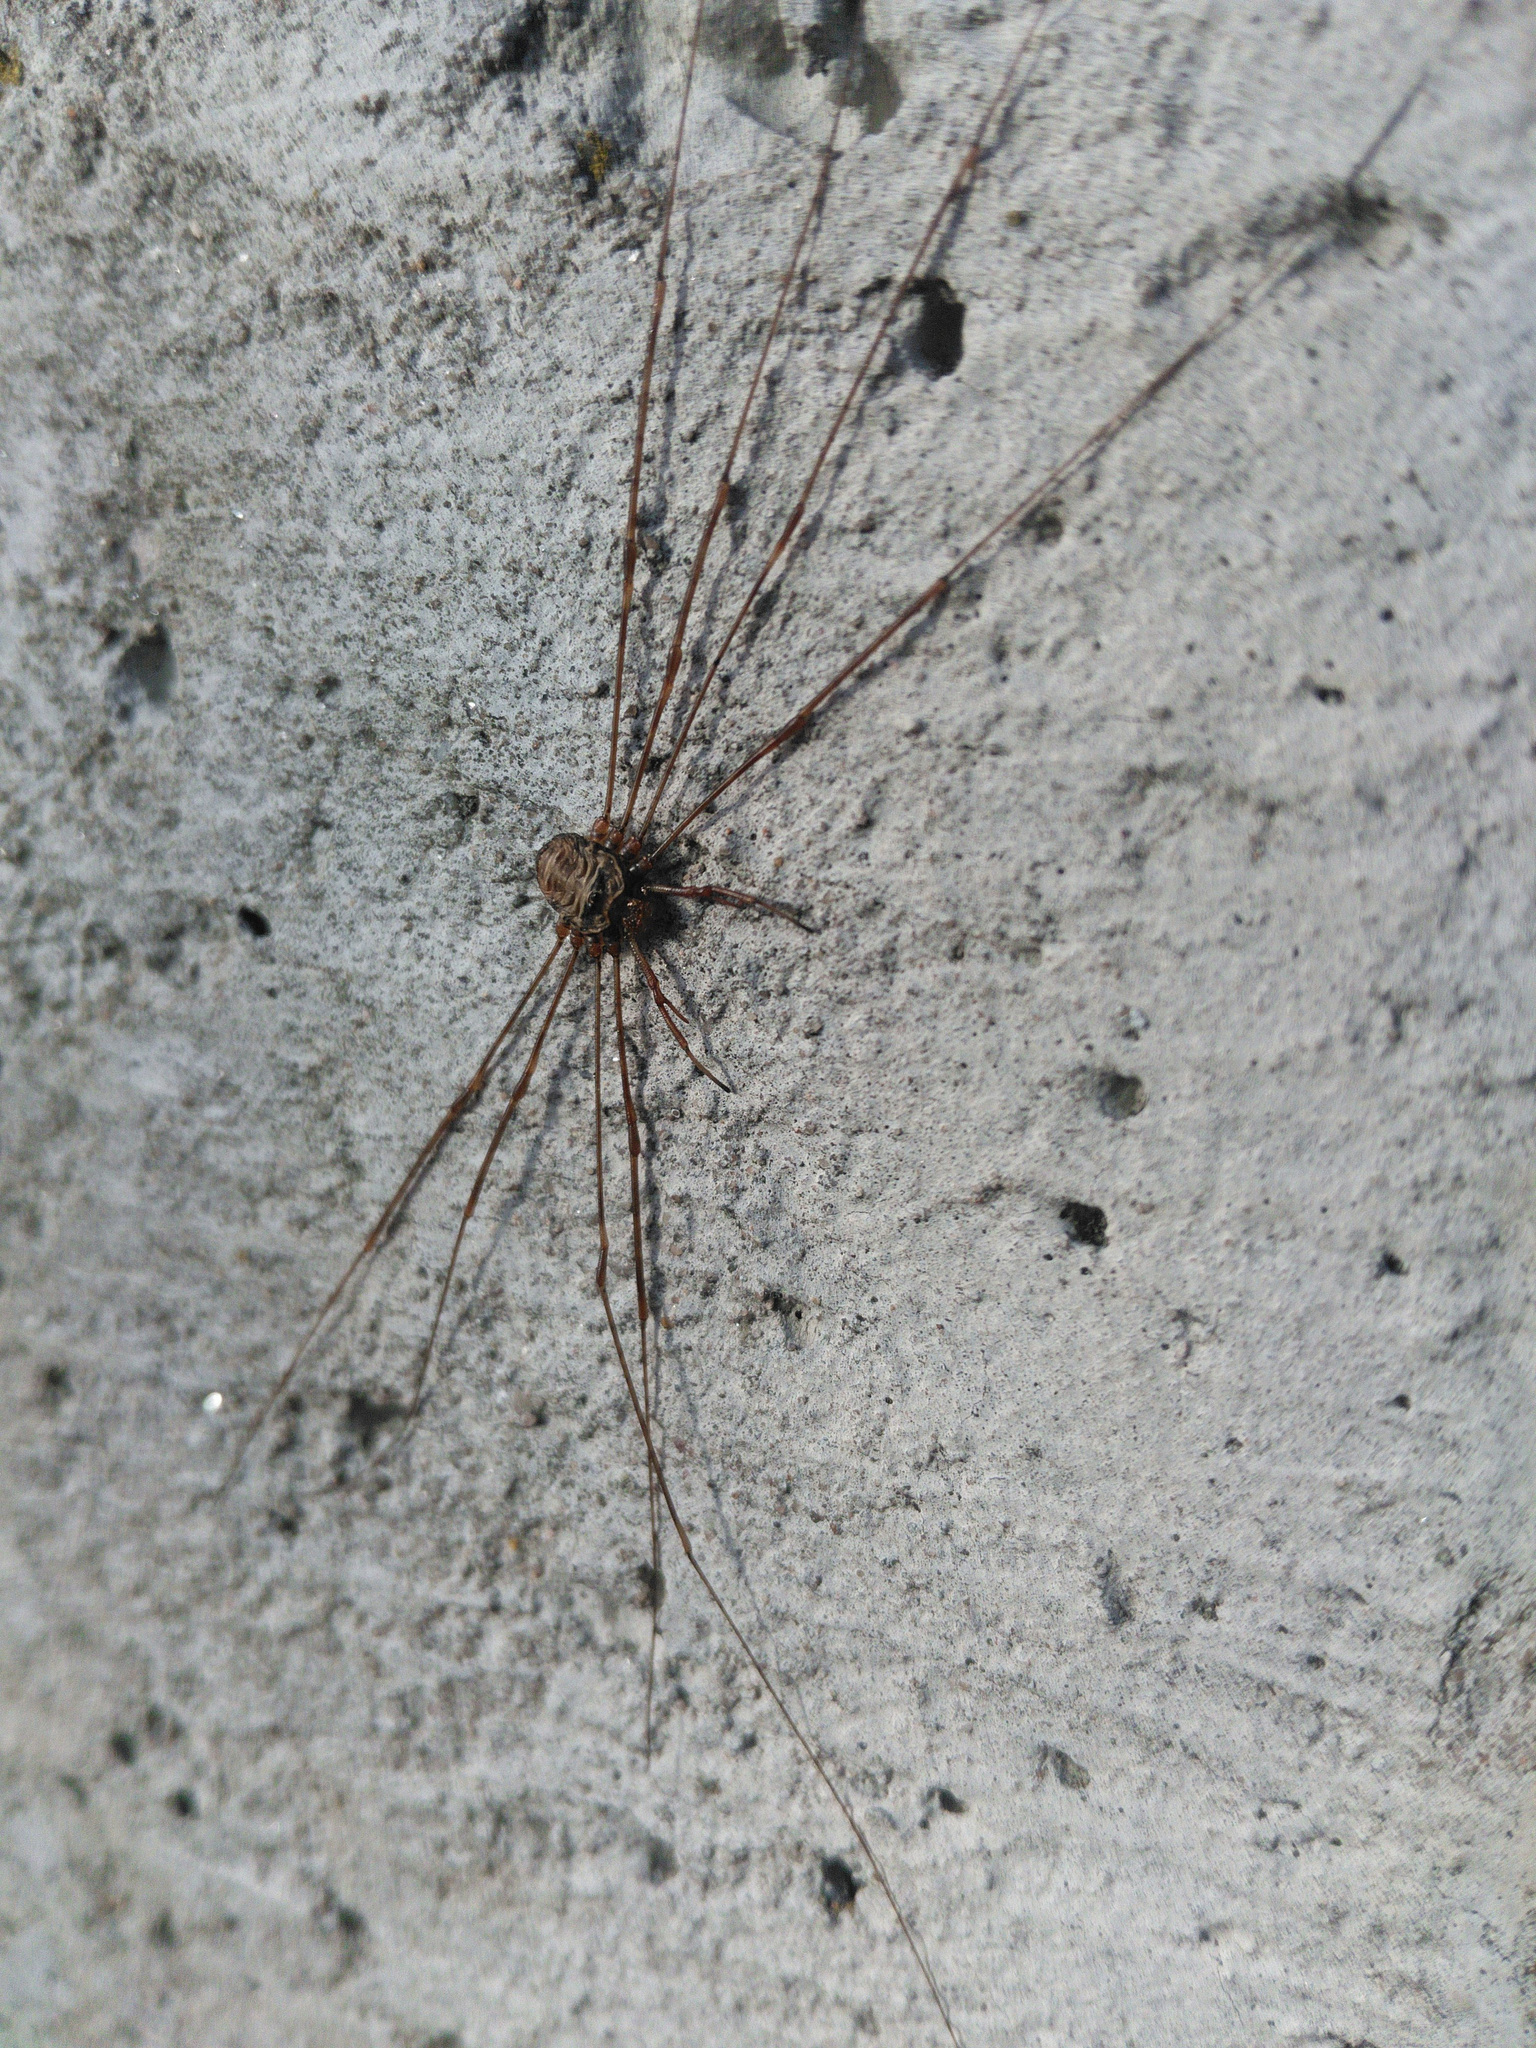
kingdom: Animalia
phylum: Arthropoda
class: Arachnida
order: Opiliones
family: Phalangiidae
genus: Dicranopalpus
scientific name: Dicranopalpus ramosus
